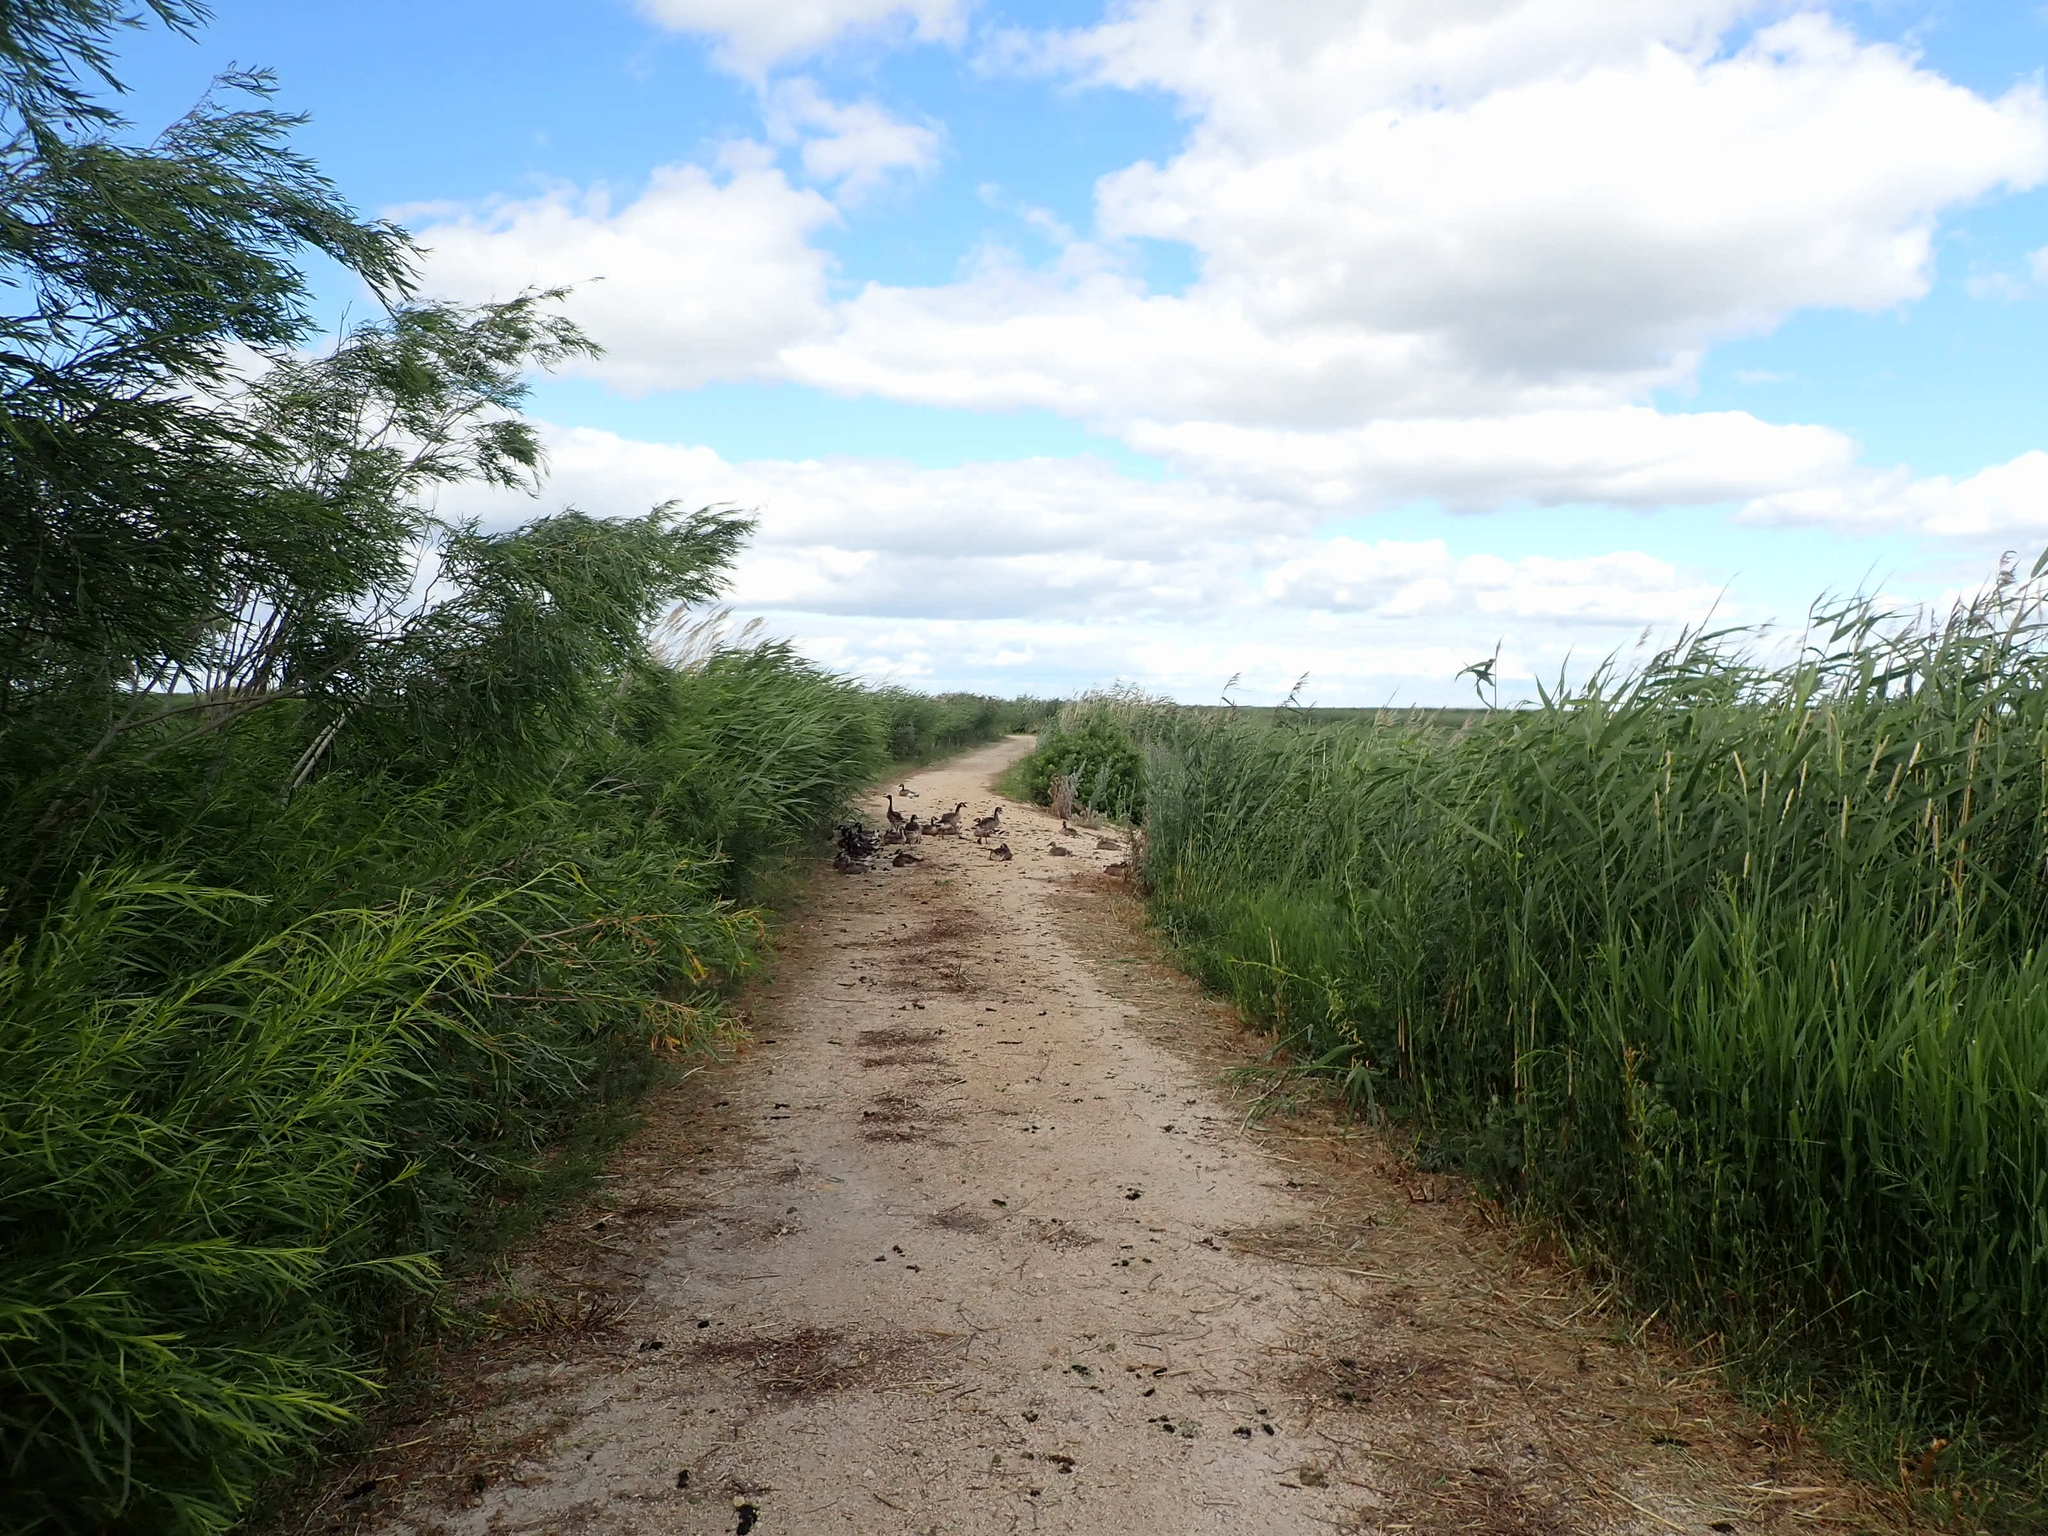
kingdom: Animalia
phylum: Chordata
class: Aves
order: Anseriformes
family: Anatidae
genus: Branta
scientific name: Branta canadensis
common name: Canada goose
